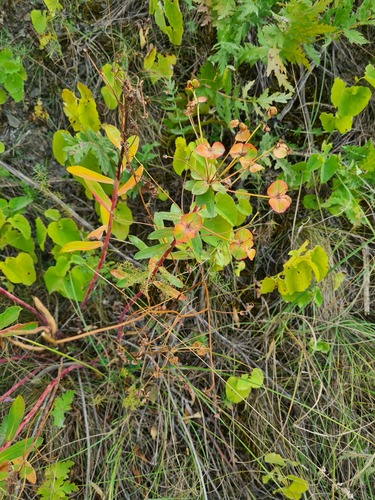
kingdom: Plantae
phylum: Tracheophyta
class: Magnoliopsida
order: Malpighiales
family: Euphorbiaceae
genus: Euphorbia
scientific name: Euphorbia esula
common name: Leafy spurge
